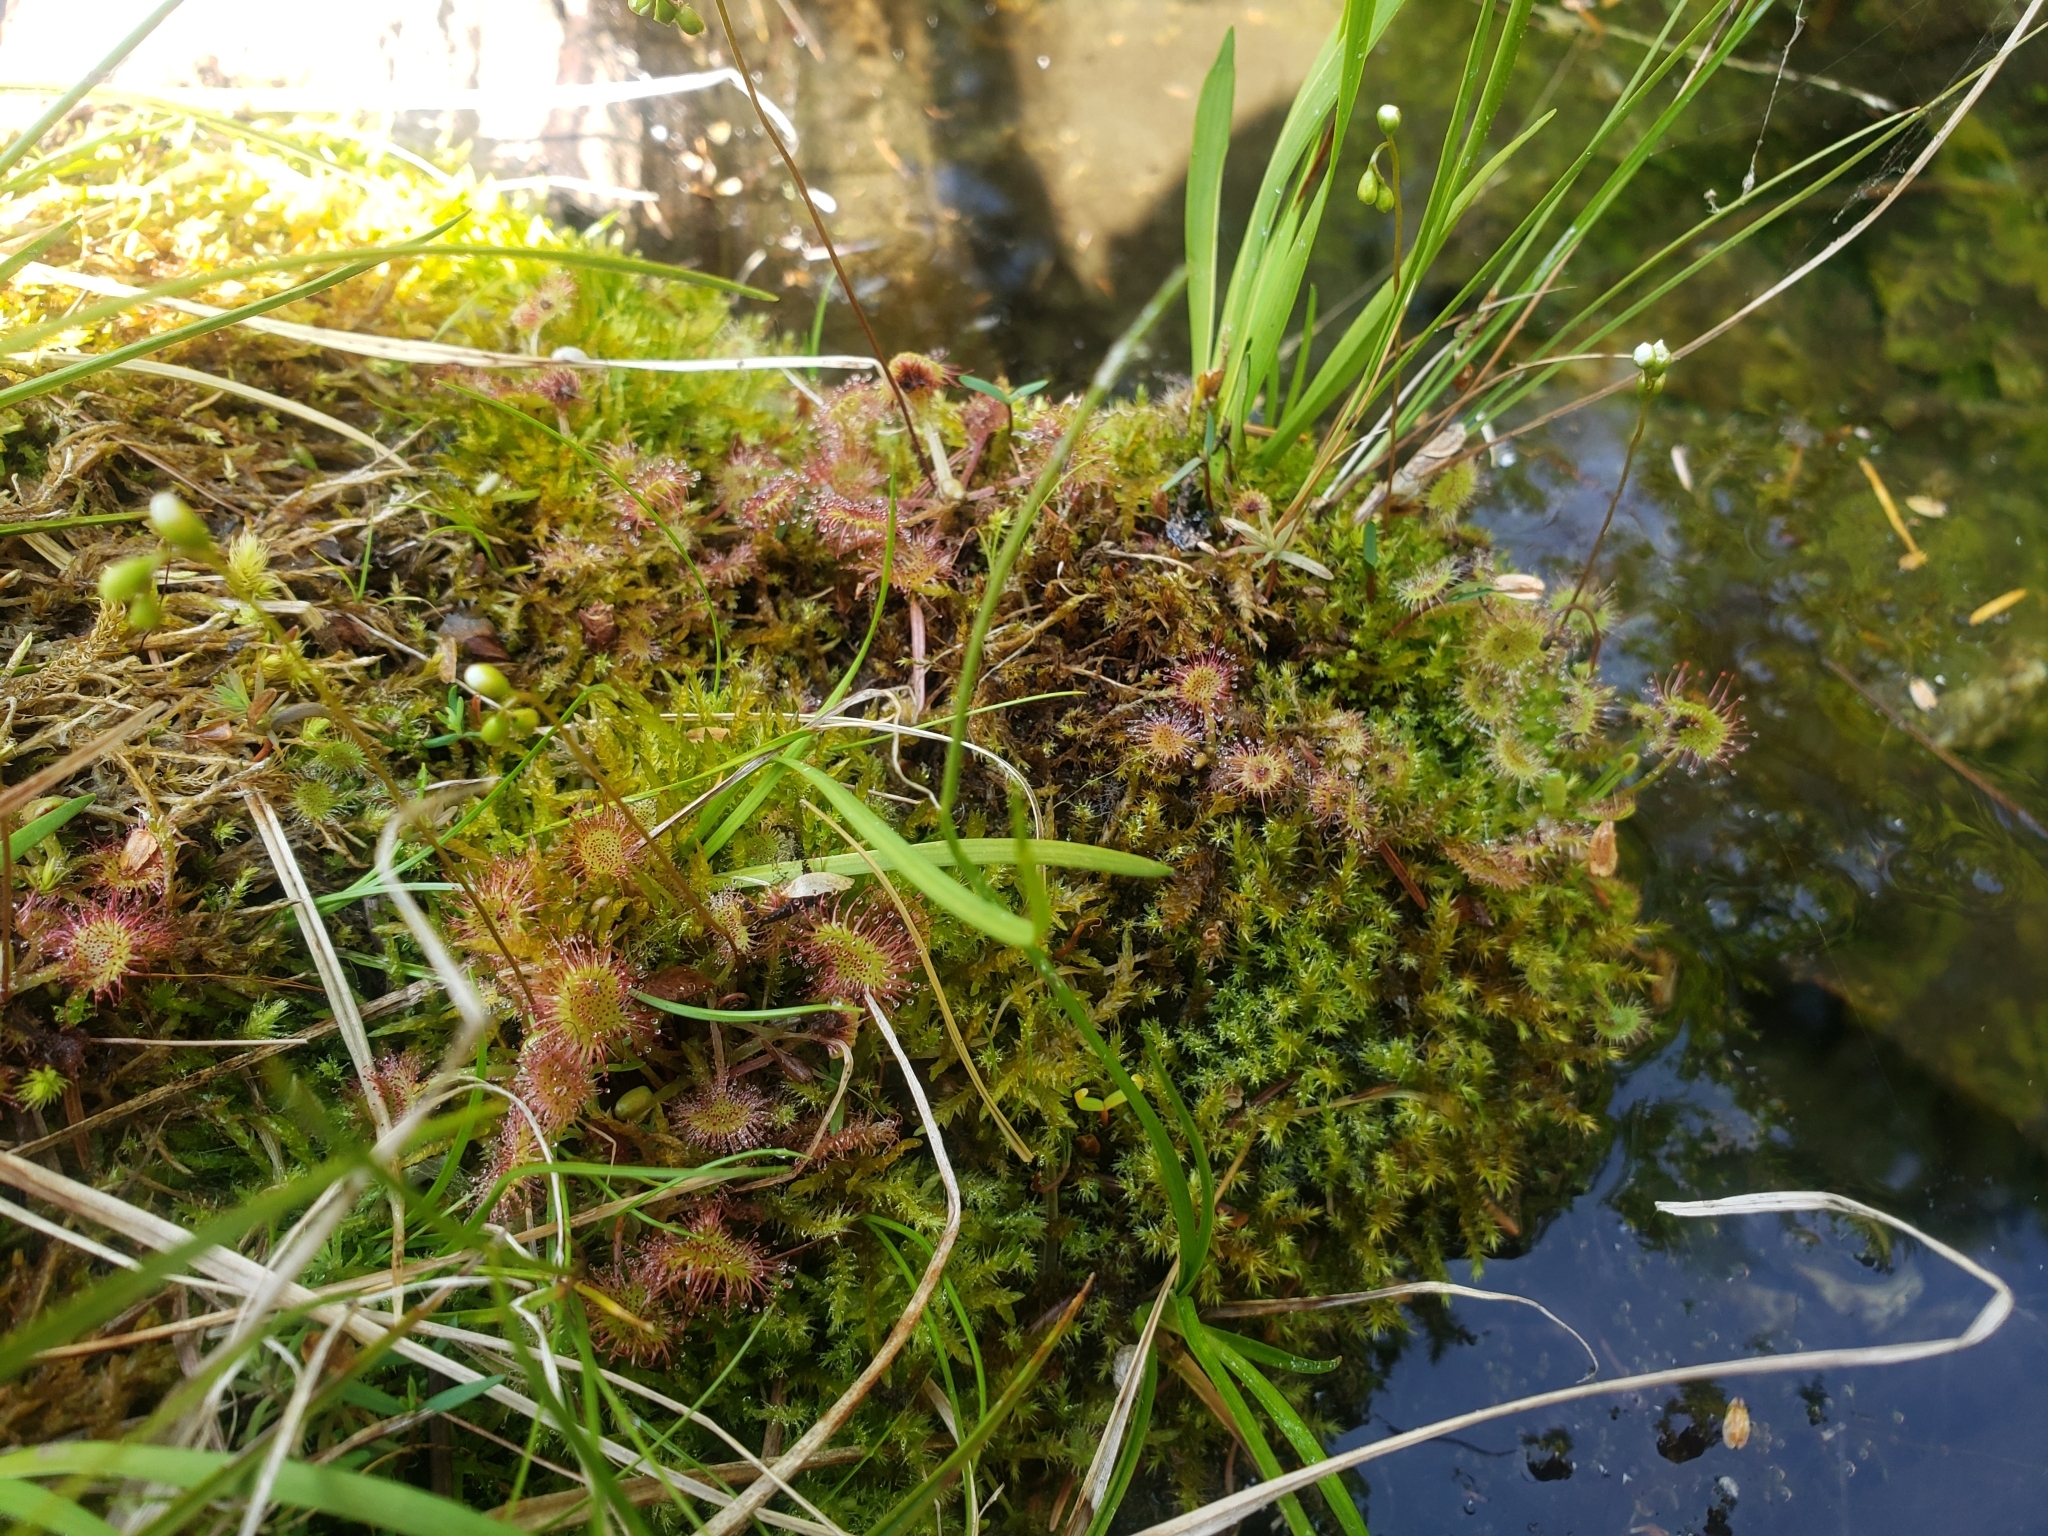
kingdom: Plantae
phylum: Tracheophyta
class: Magnoliopsida
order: Caryophyllales
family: Droseraceae
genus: Drosera
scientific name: Drosera rotundifolia
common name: Round-leaved sundew
